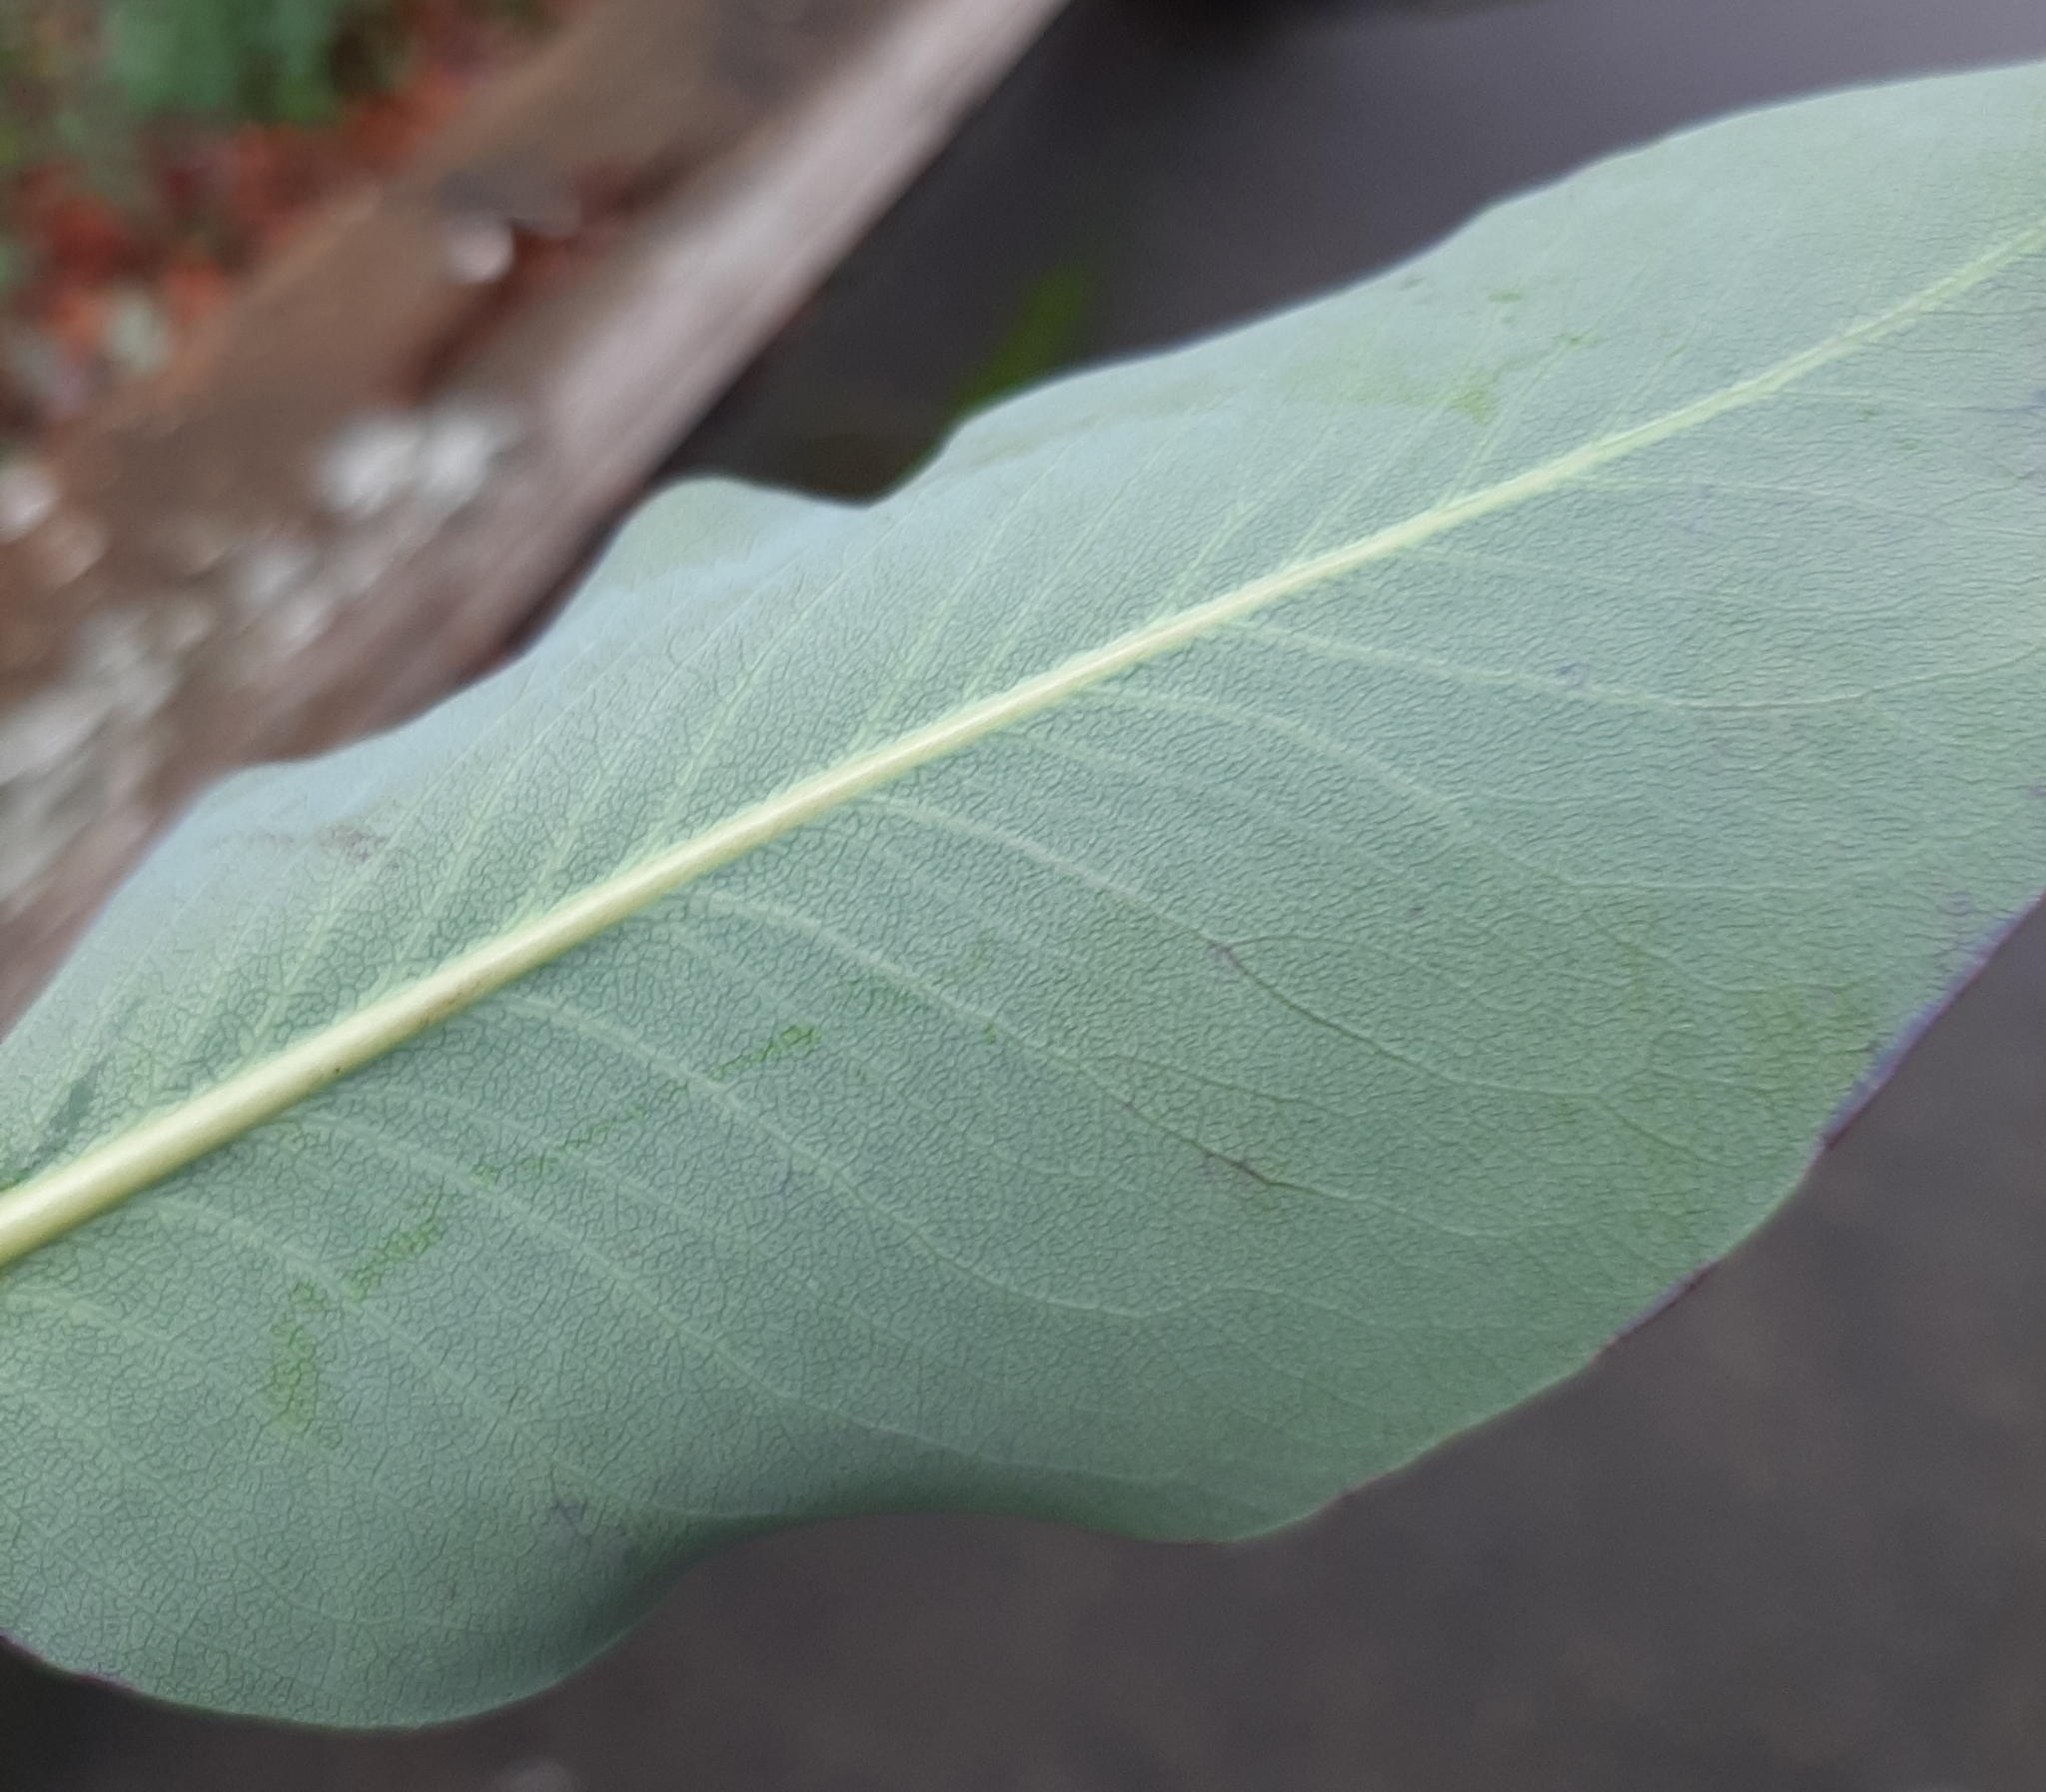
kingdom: Animalia
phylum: Arthropoda
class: Insecta
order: Lepidoptera
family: Gracillariidae
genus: Marmara
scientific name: Marmara arbutiella
